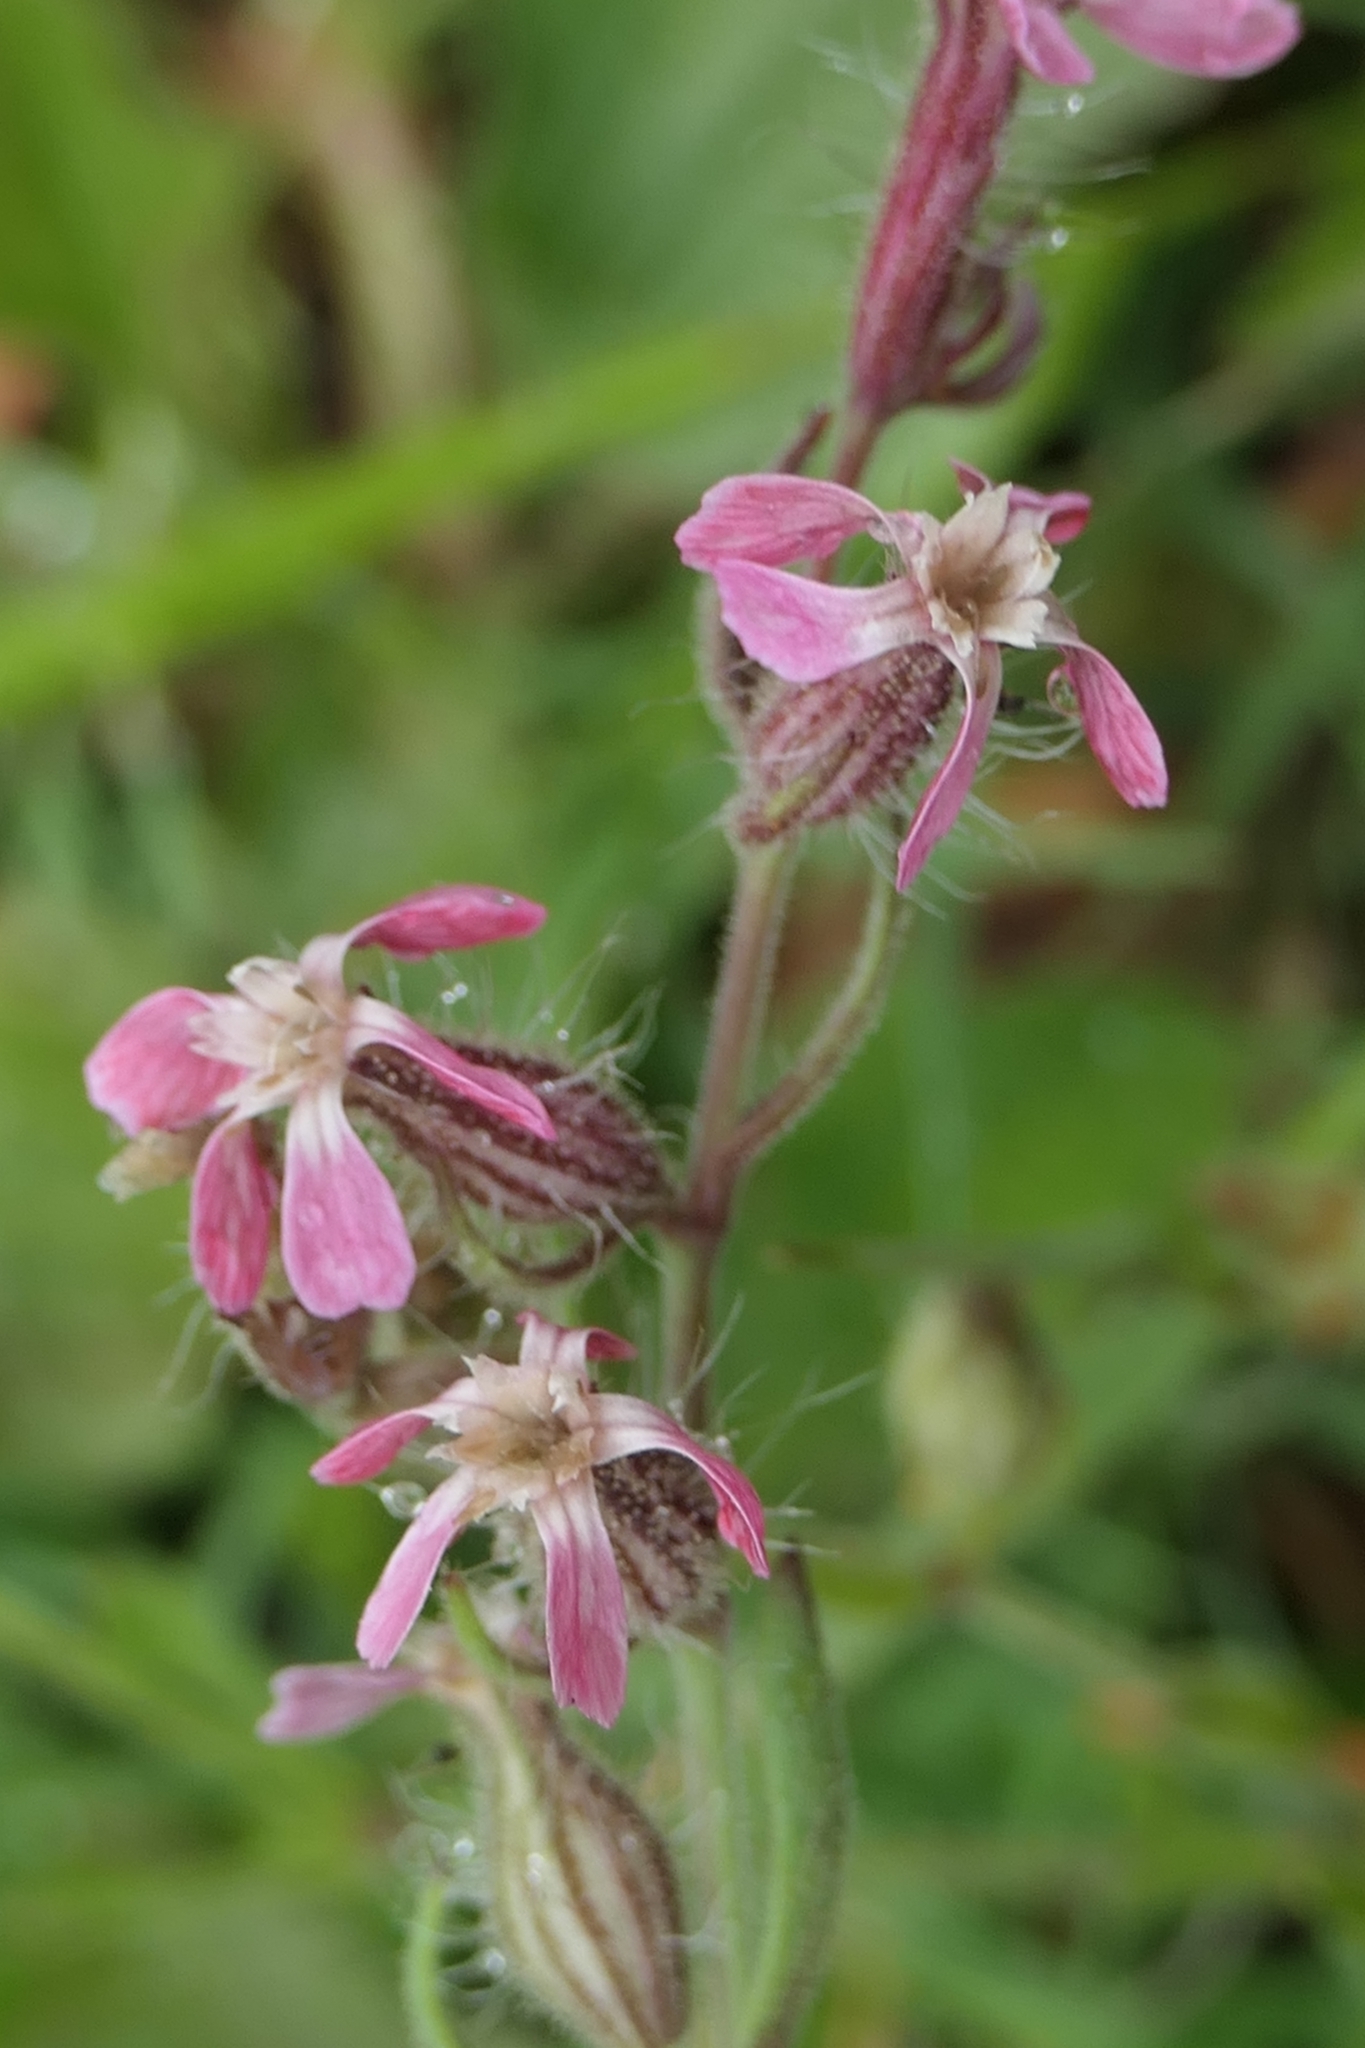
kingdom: Plantae
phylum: Tracheophyta
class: Magnoliopsida
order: Caryophyllales
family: Caryophyllaceae
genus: Silene
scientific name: Silene gallica
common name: Small-flowered catchfly
